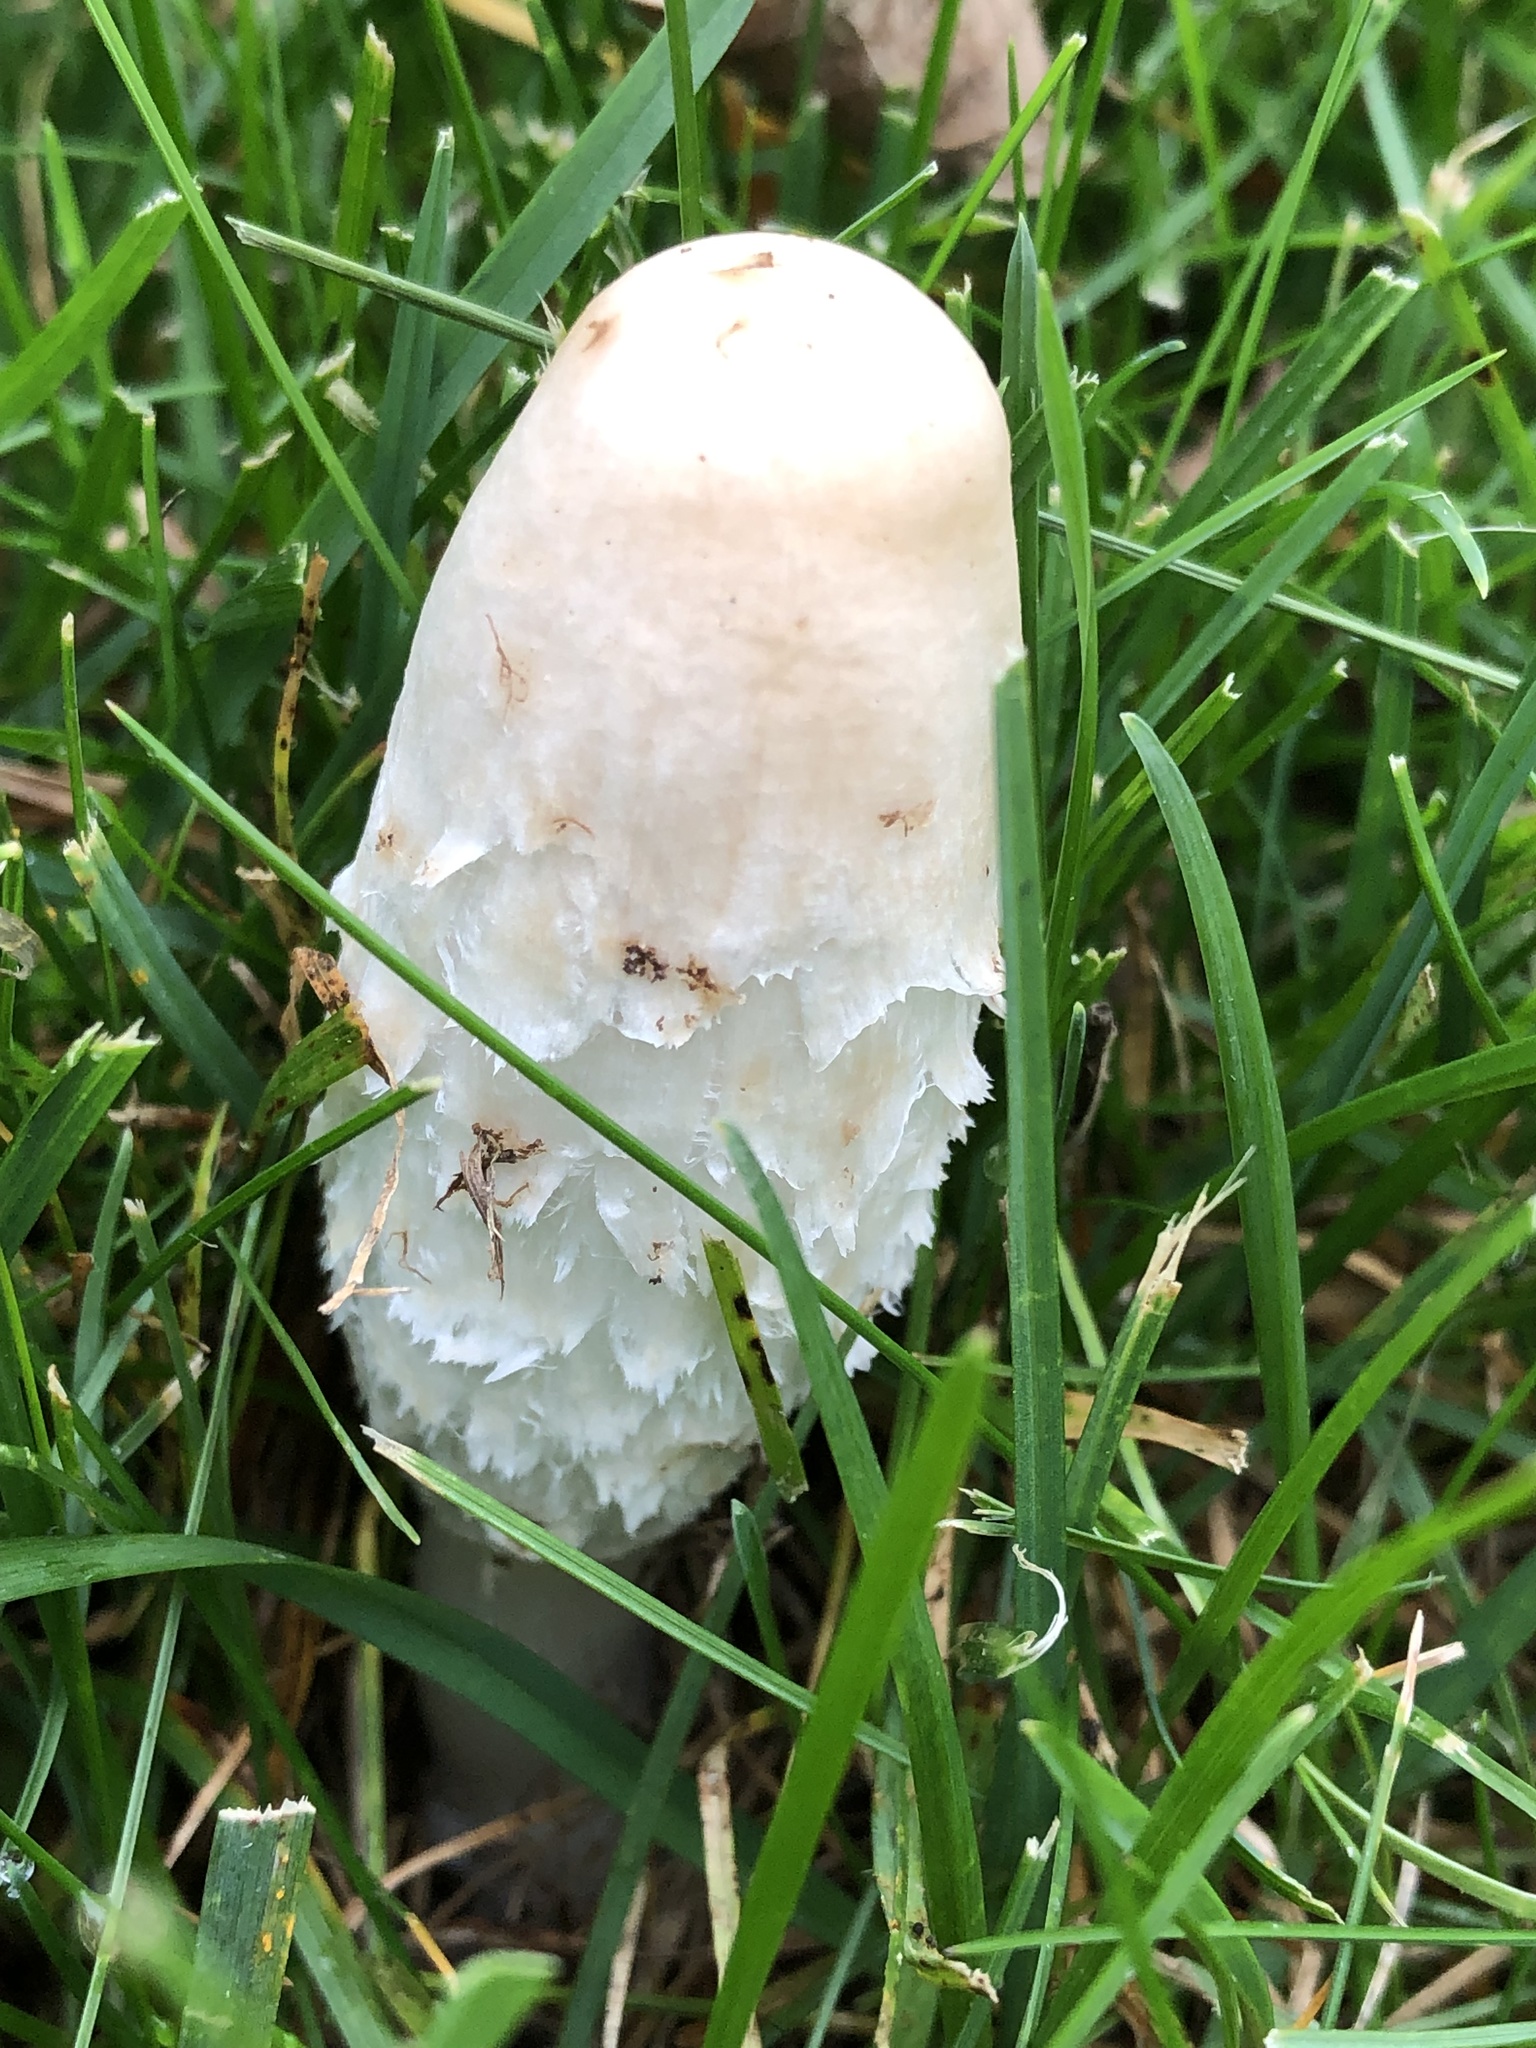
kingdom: Fungi
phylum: Basidiomycota
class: Agaricomycetes
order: Agaricales
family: Agaricaceae
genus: Coprinus
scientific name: Coprinus comatus
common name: Lawyer's wig
